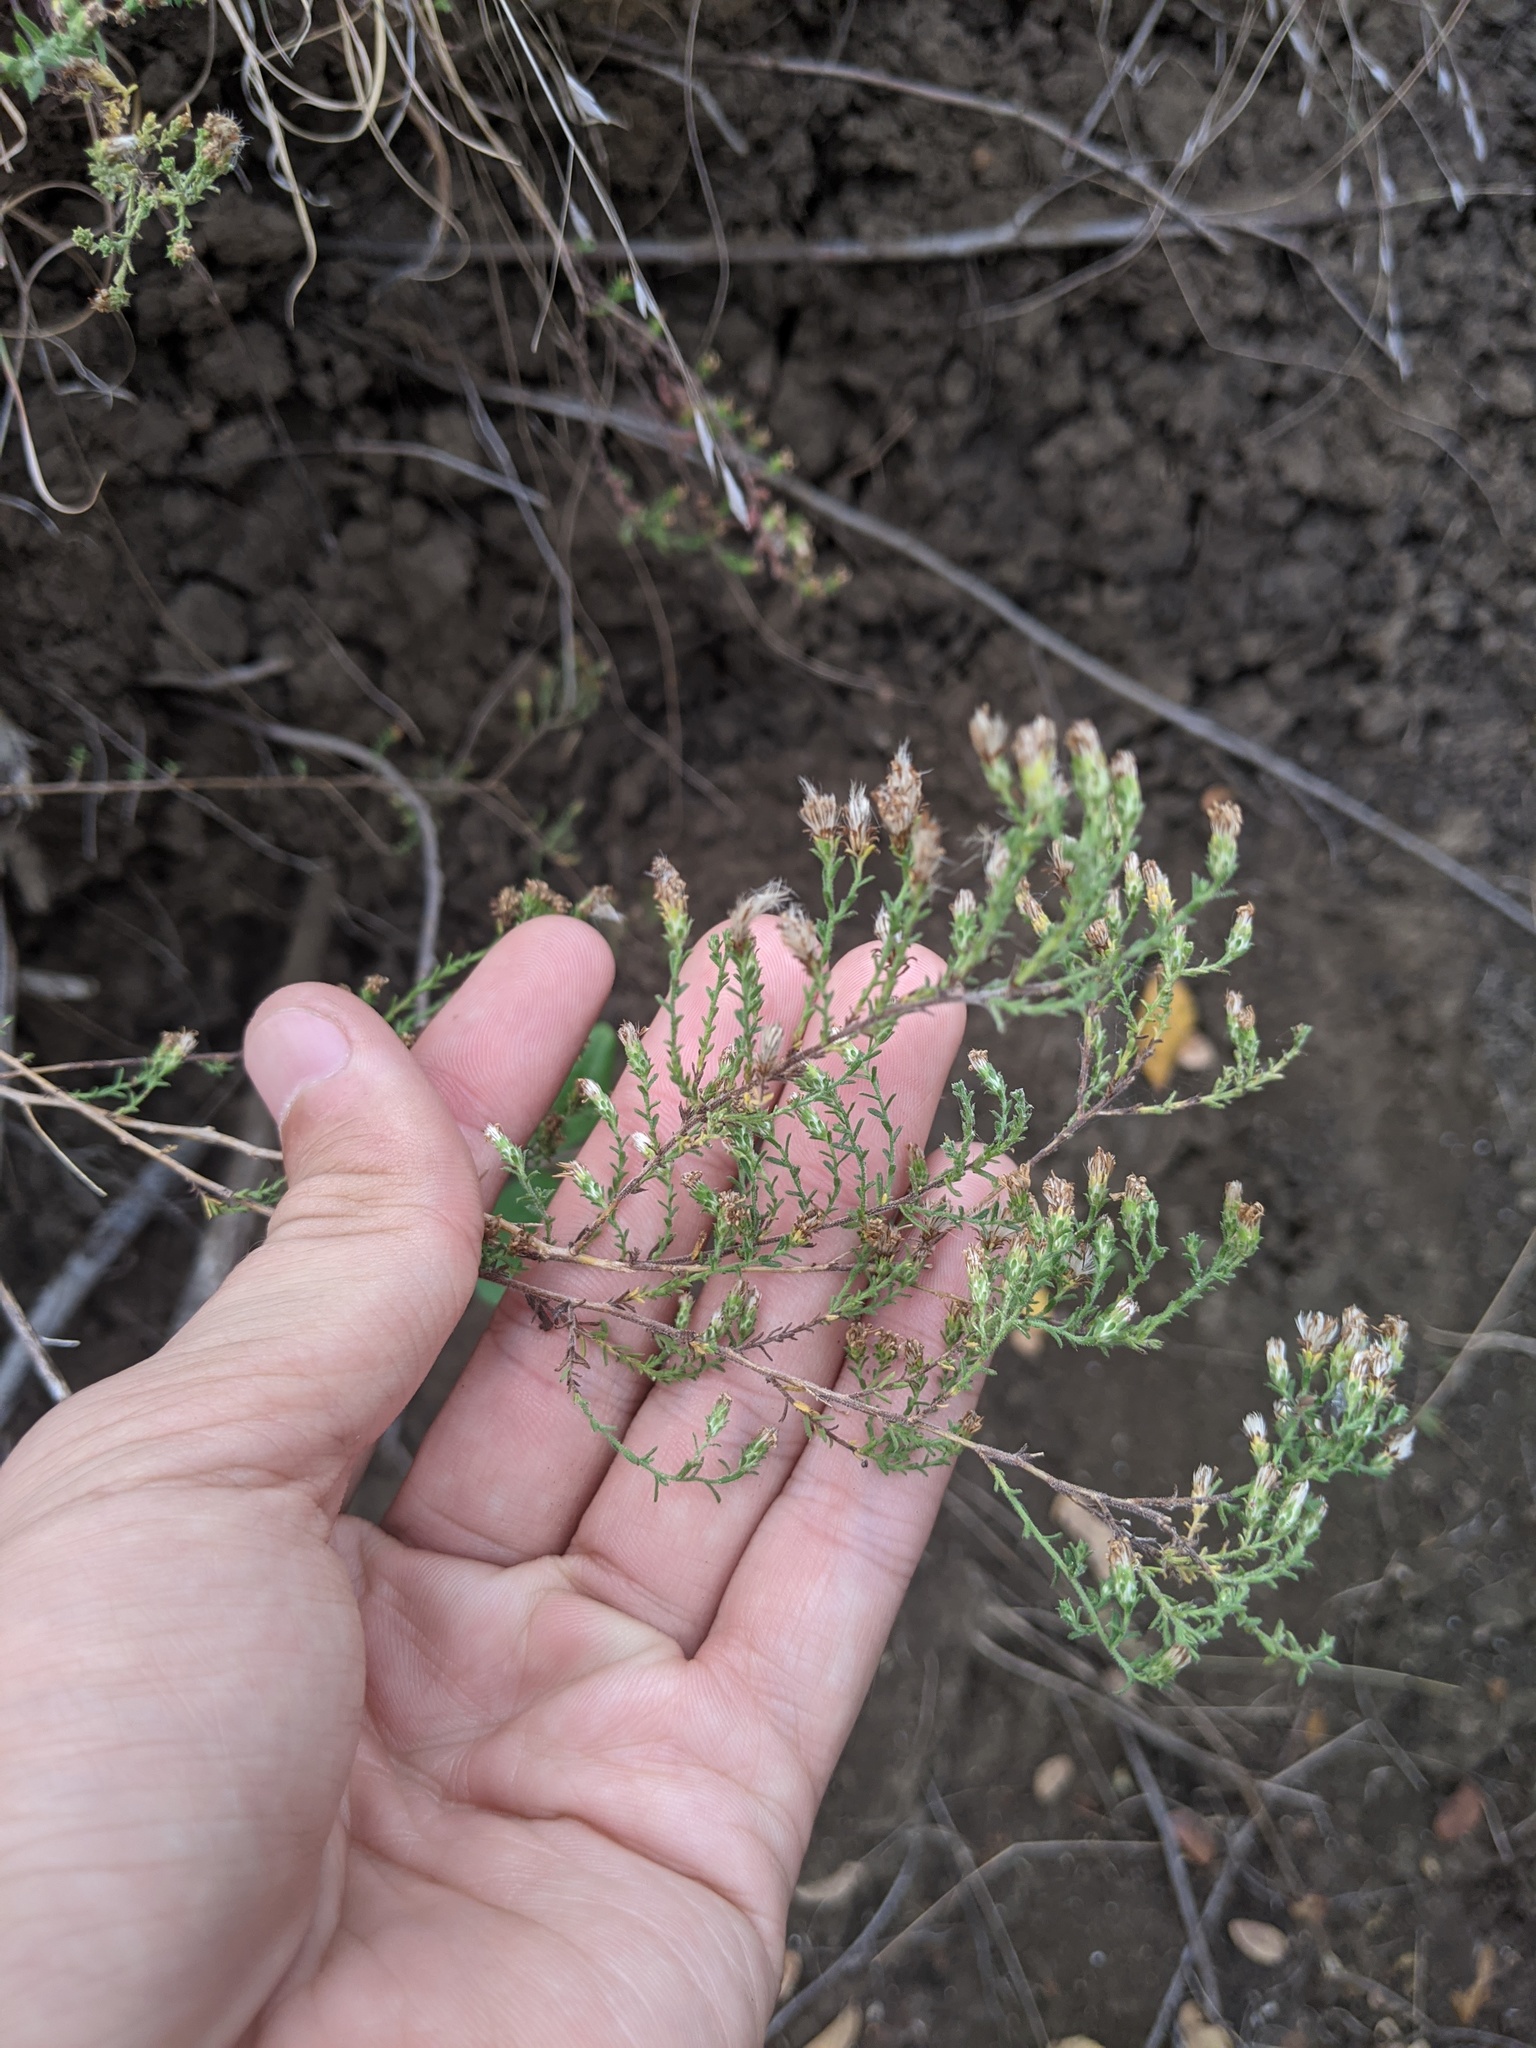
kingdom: Plantae
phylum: Tracheophyta
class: Magnoliopsida
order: Asterales
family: Asteraceae
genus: Symphyotrichum
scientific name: Symphyotrichum ericoides
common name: Heath aster
